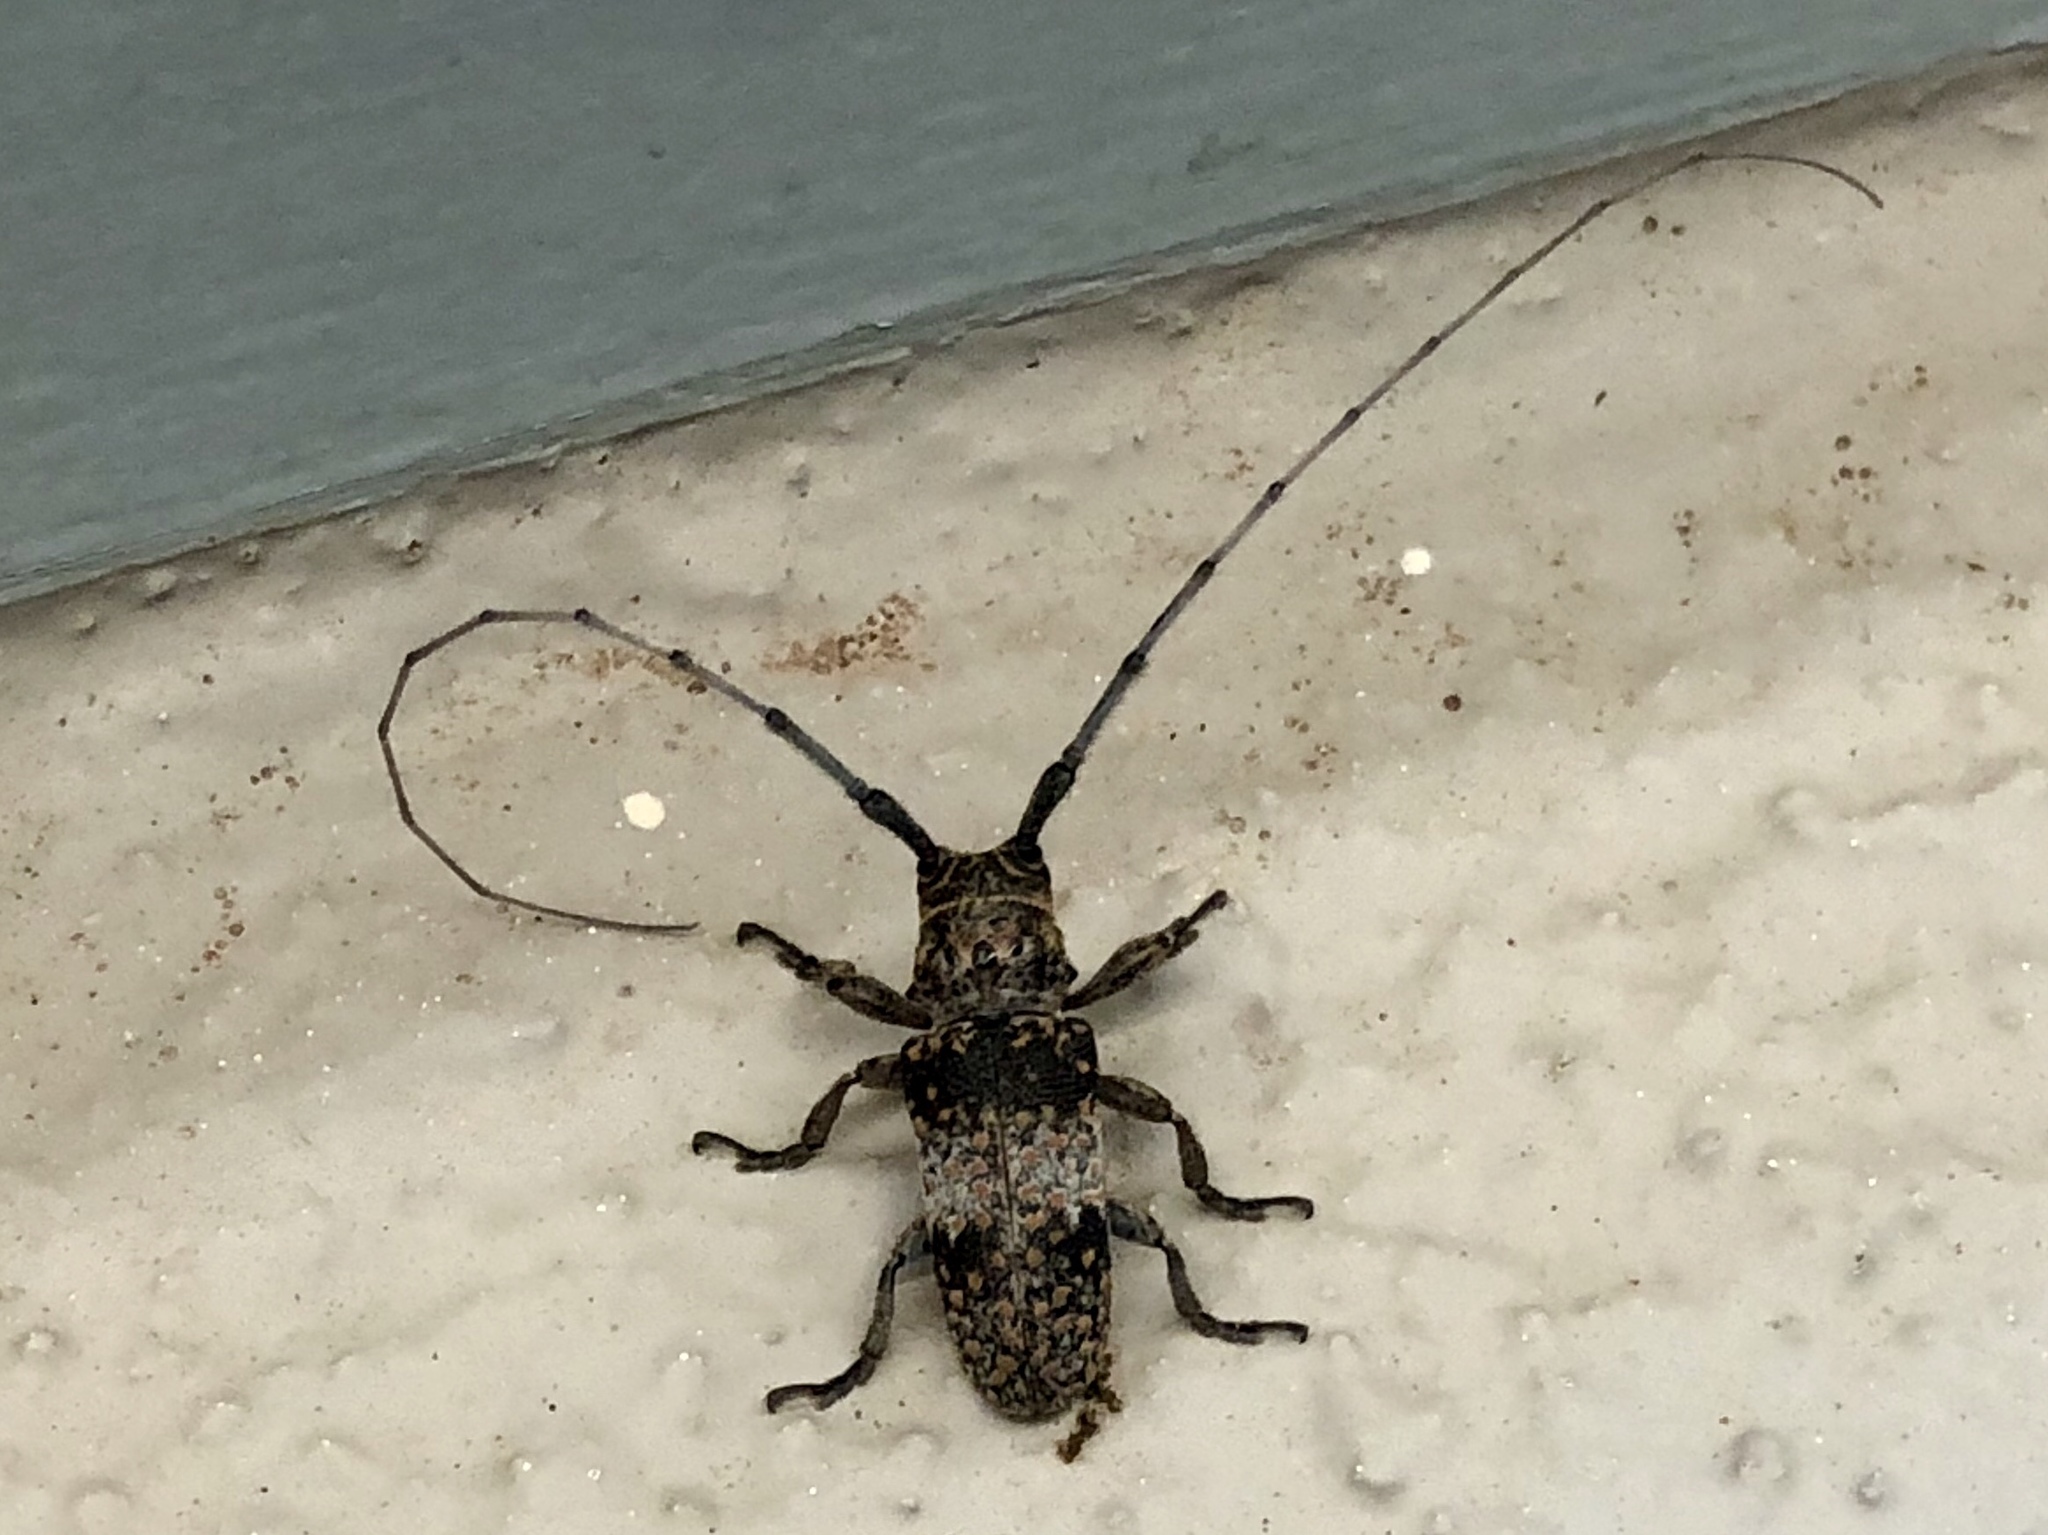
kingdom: Animalia
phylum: Arthropoda
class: Insecta
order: Coleoptera
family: Cerambycidae
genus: Oncideres
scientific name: Oncideres rhodosticta
